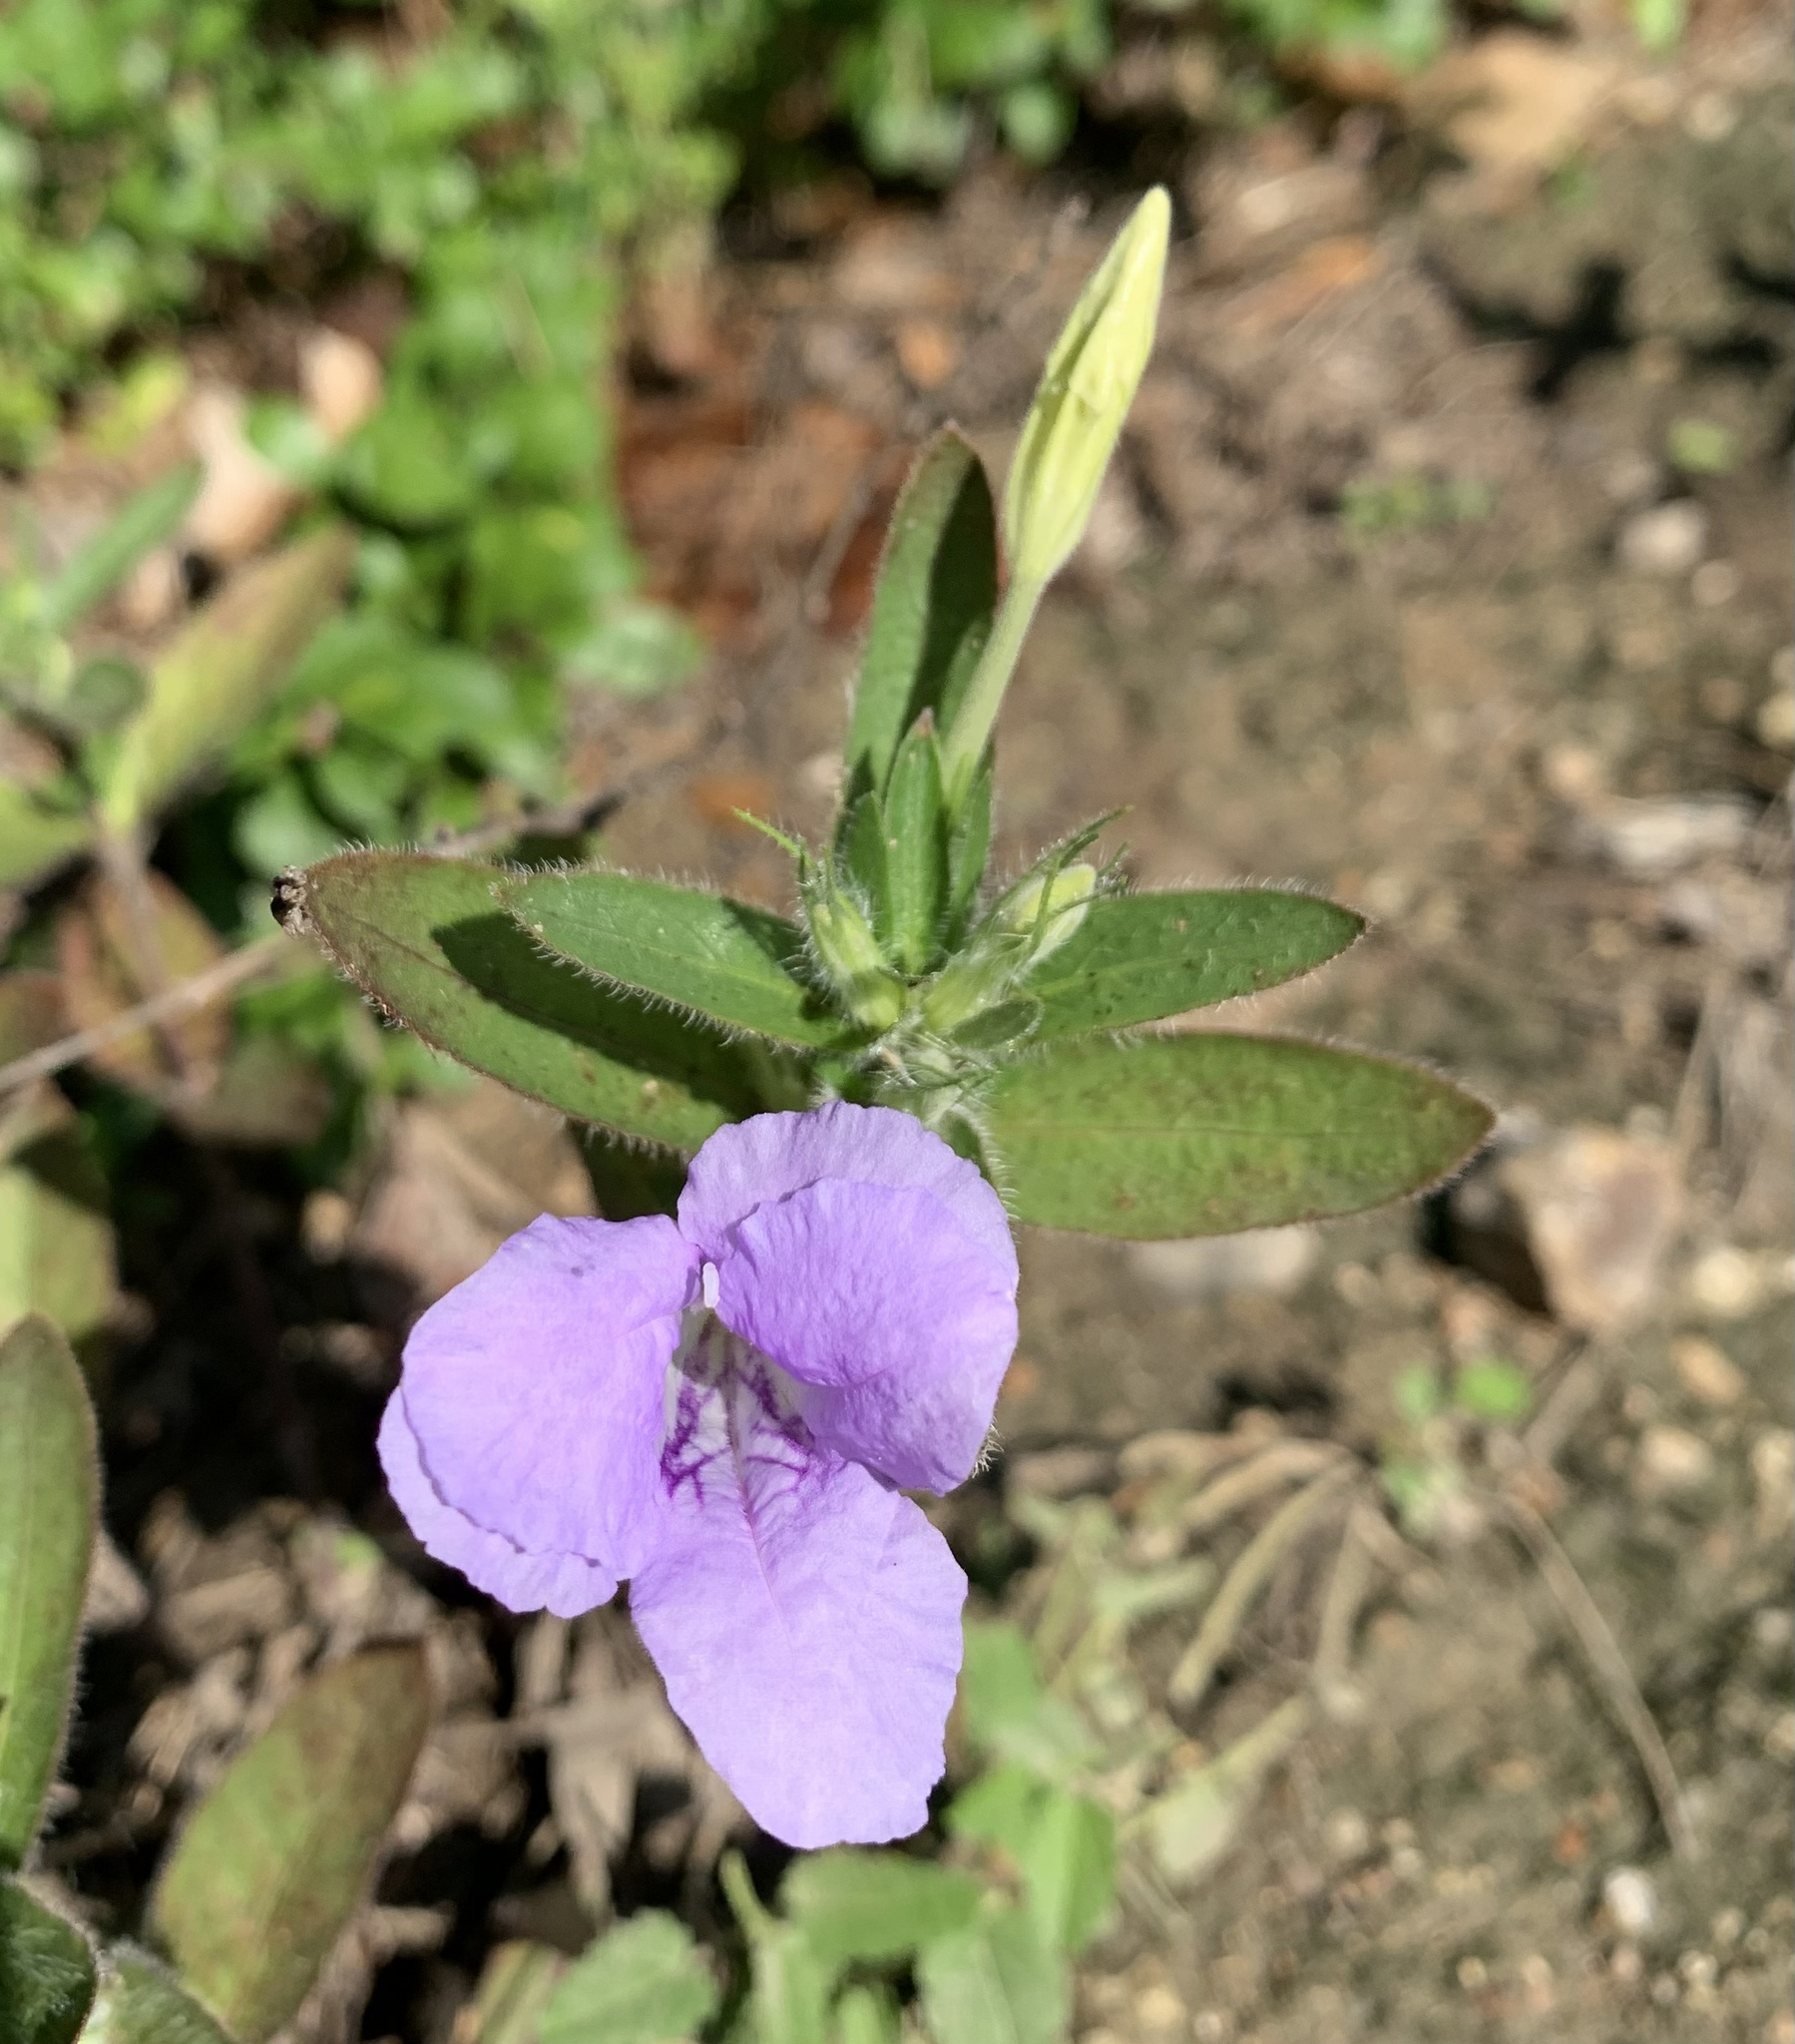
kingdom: Plantae
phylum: Tracheophyta
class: Magnoliopsida
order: Lamiales
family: Acanthaceae
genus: Ruellia
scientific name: Ruellia humilis
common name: Fringe-leaf ruellia
